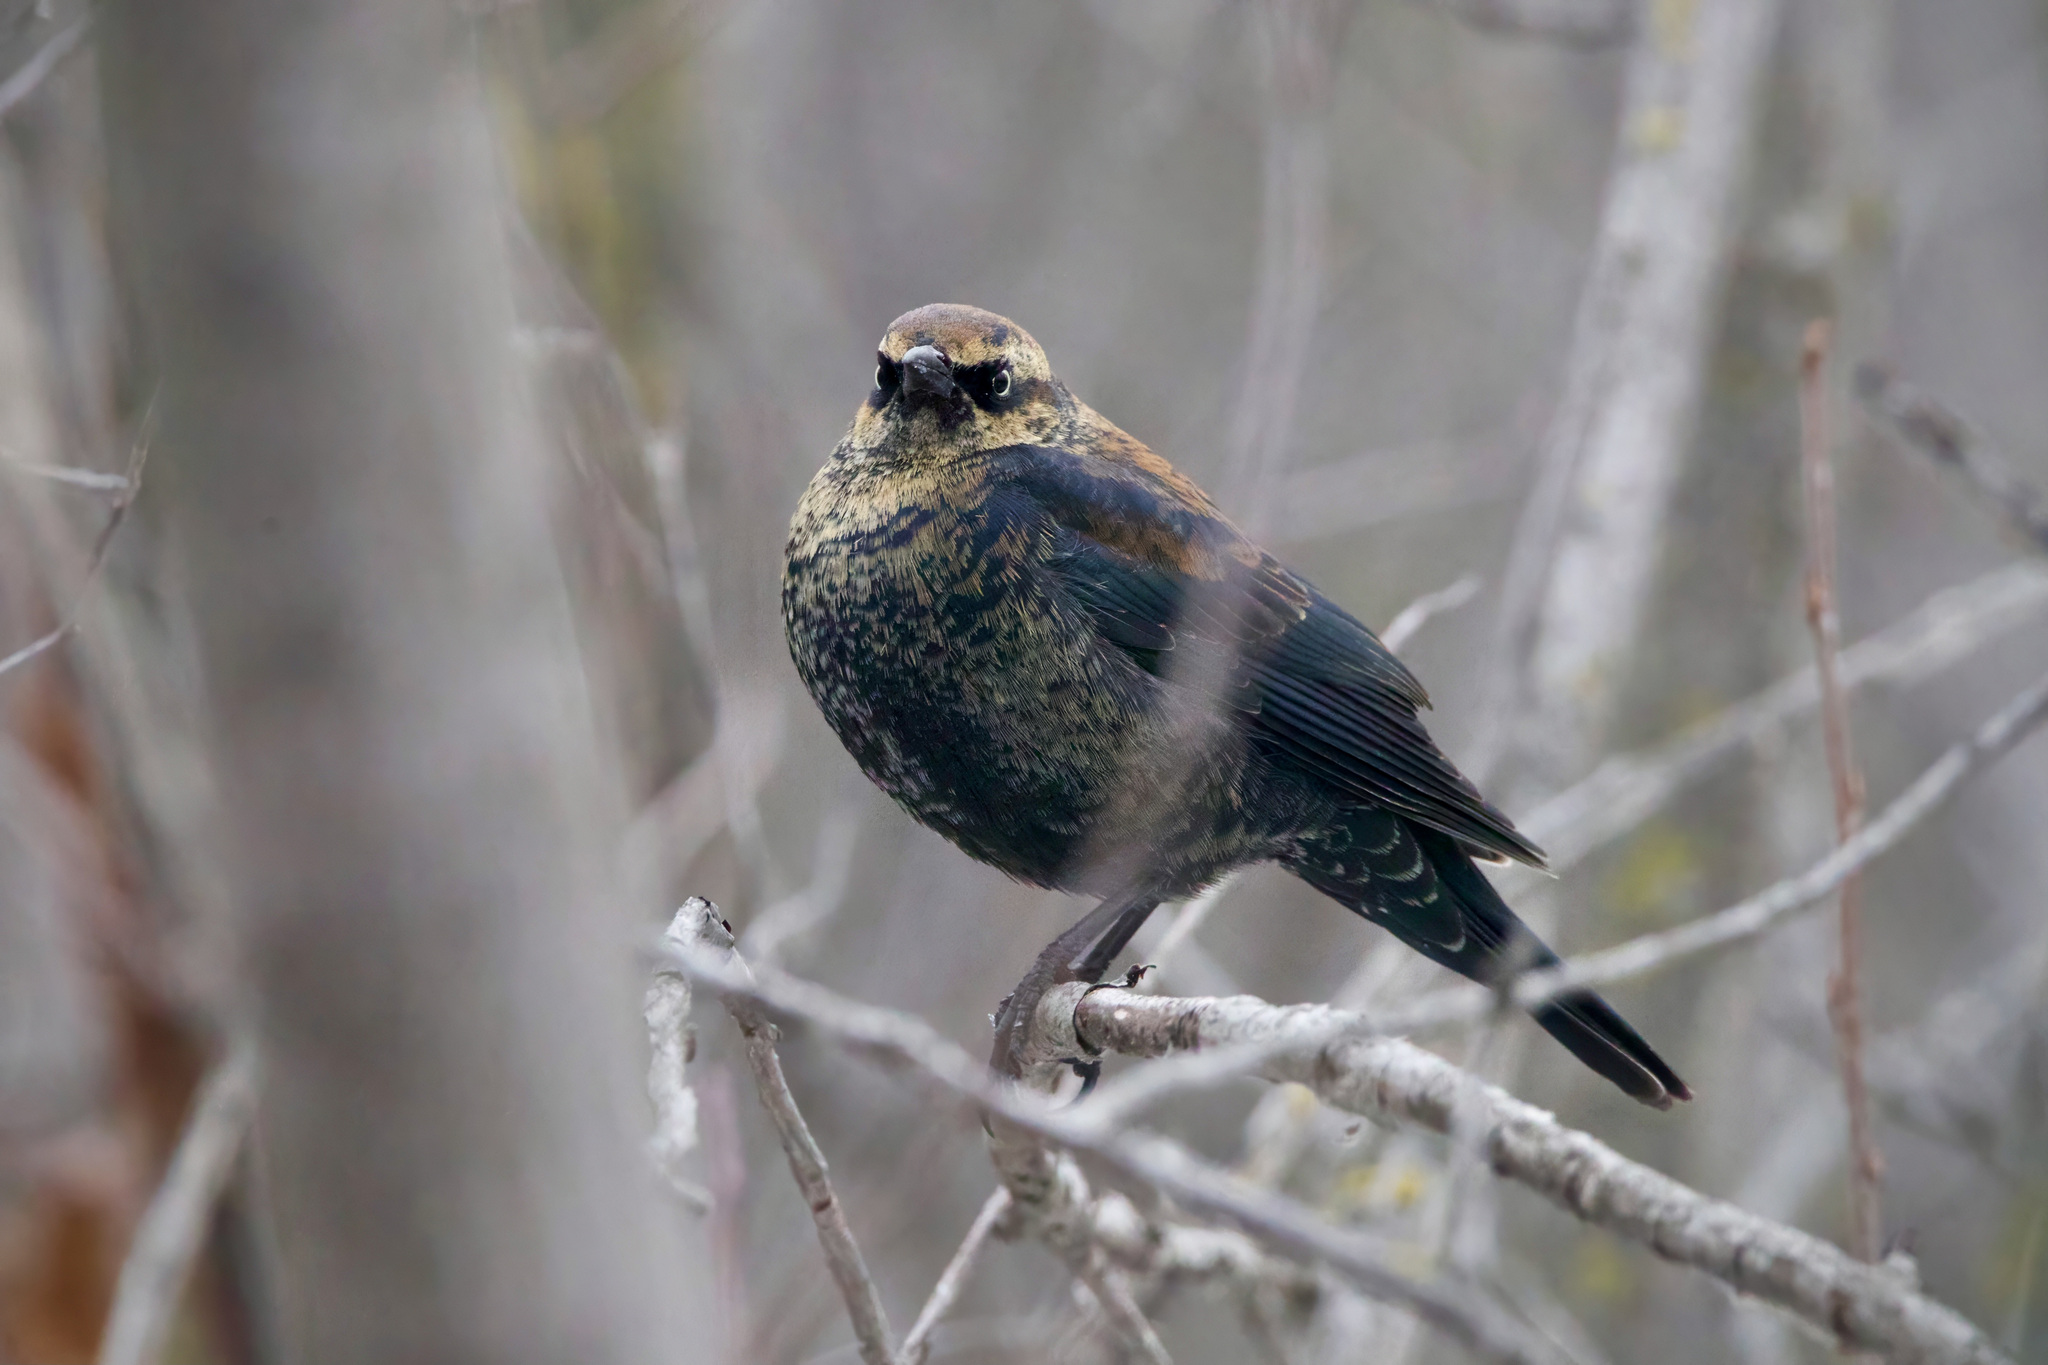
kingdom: Animalia
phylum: Chordata
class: Aves
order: Passeriformes
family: Icteridae
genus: Euphagus
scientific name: Euphagus carolinus
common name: Rusty blackbird
